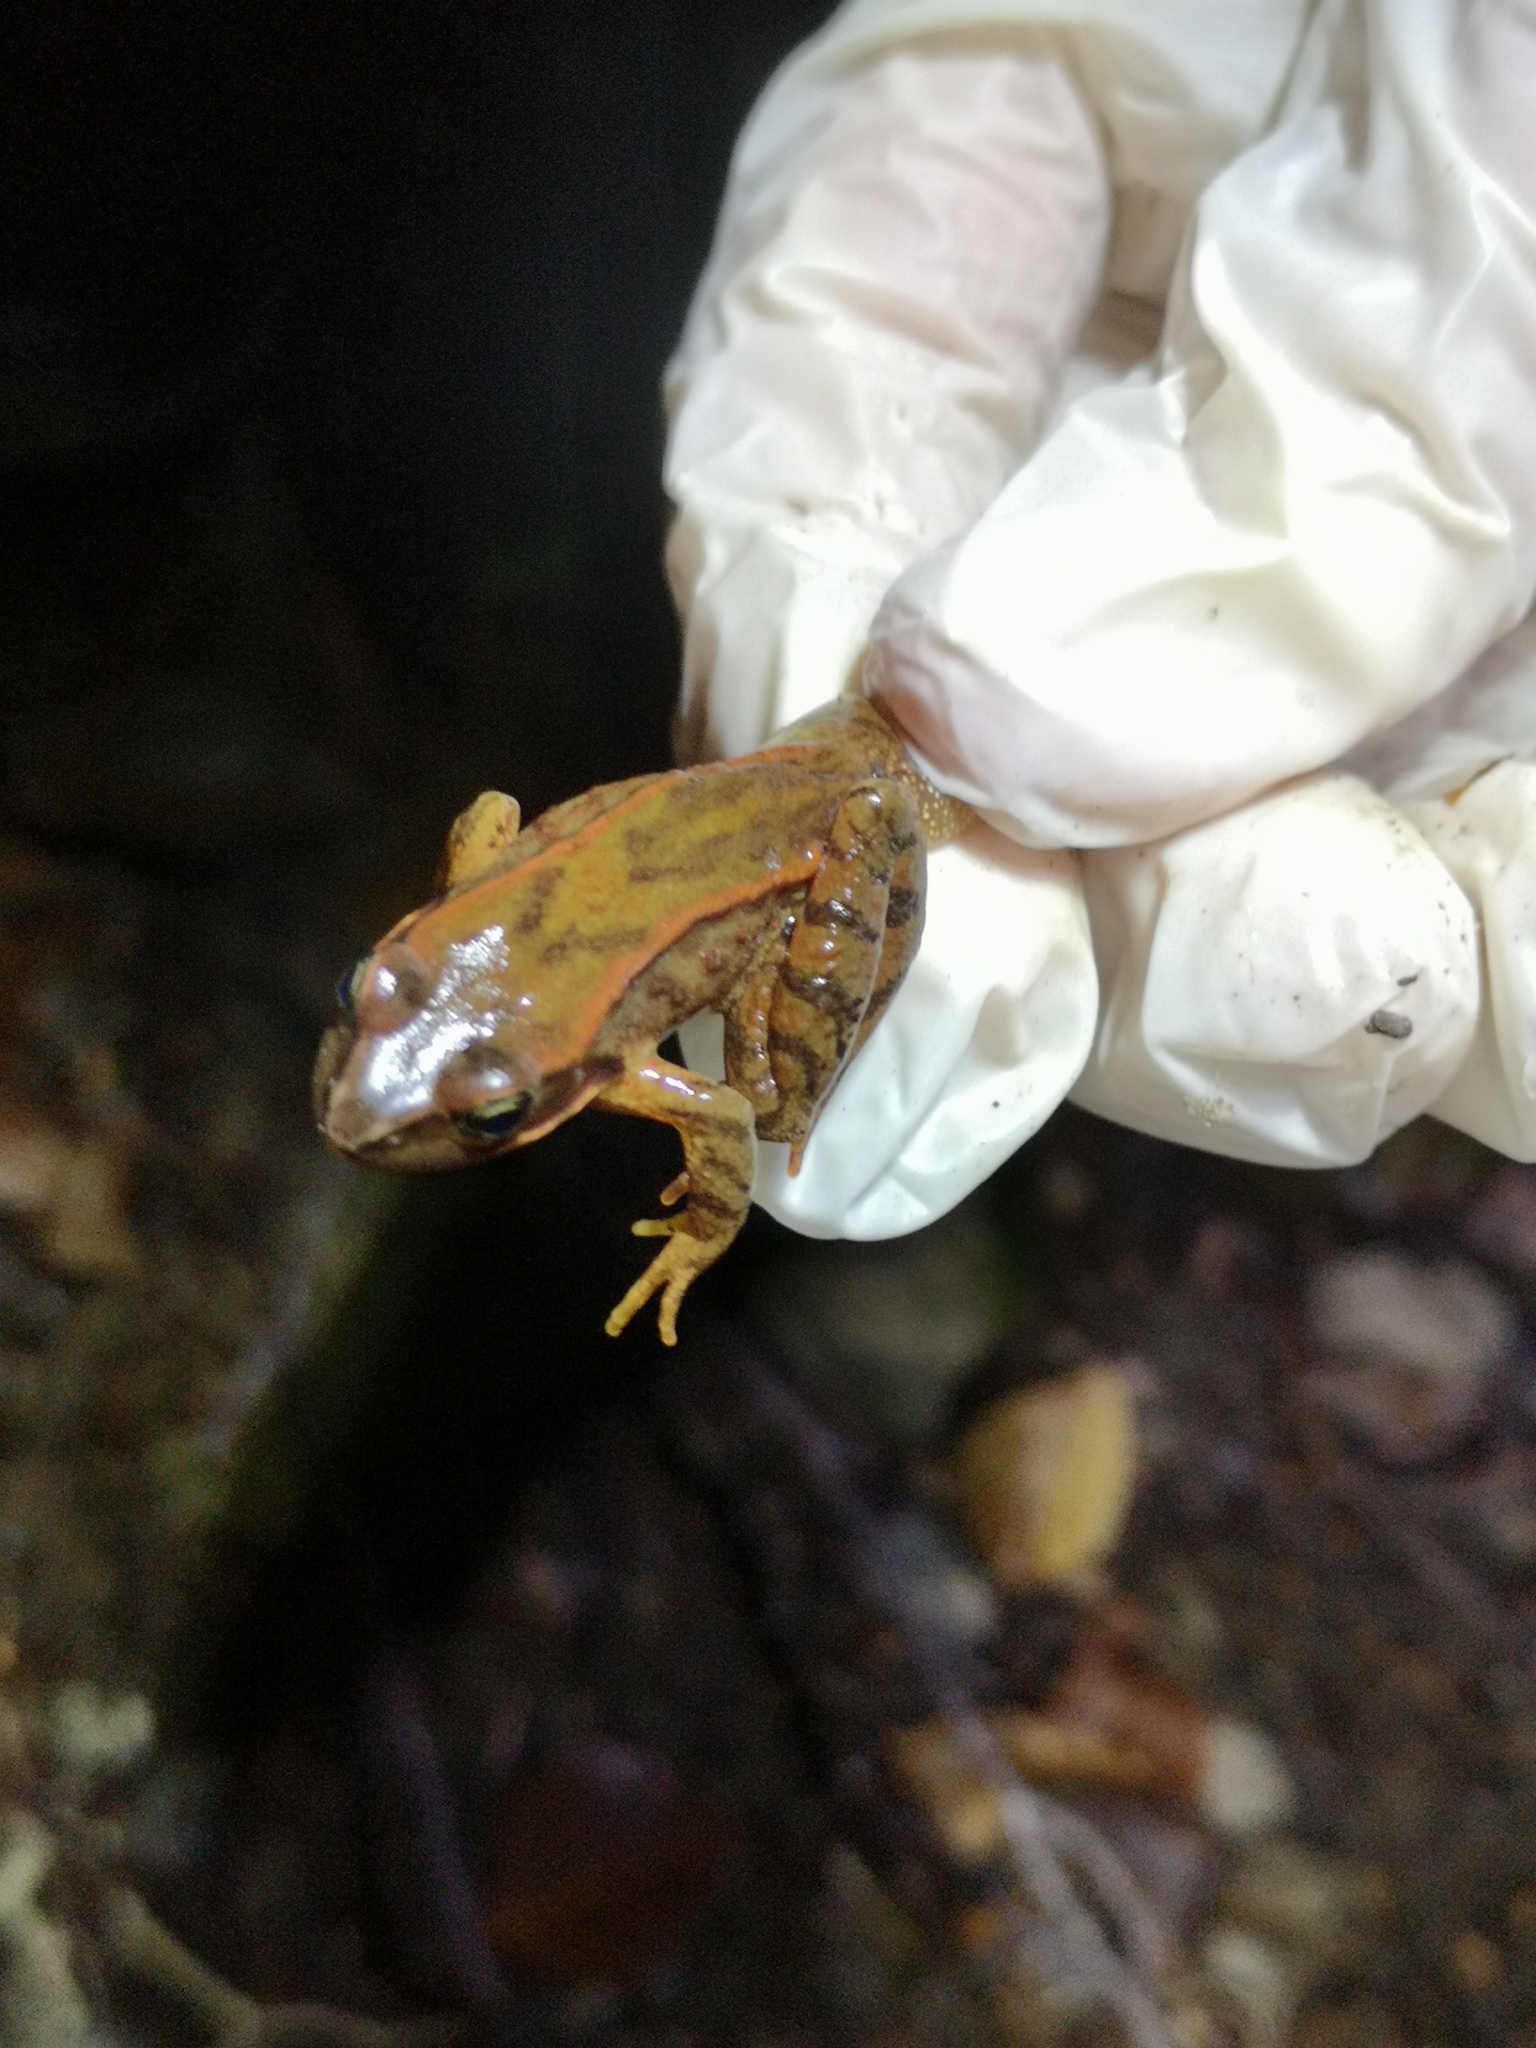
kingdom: Animalia
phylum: Chordata
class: Amphibia
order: Anura
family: Ranidae
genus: Rana
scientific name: Rana temporaria
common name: Common frog
